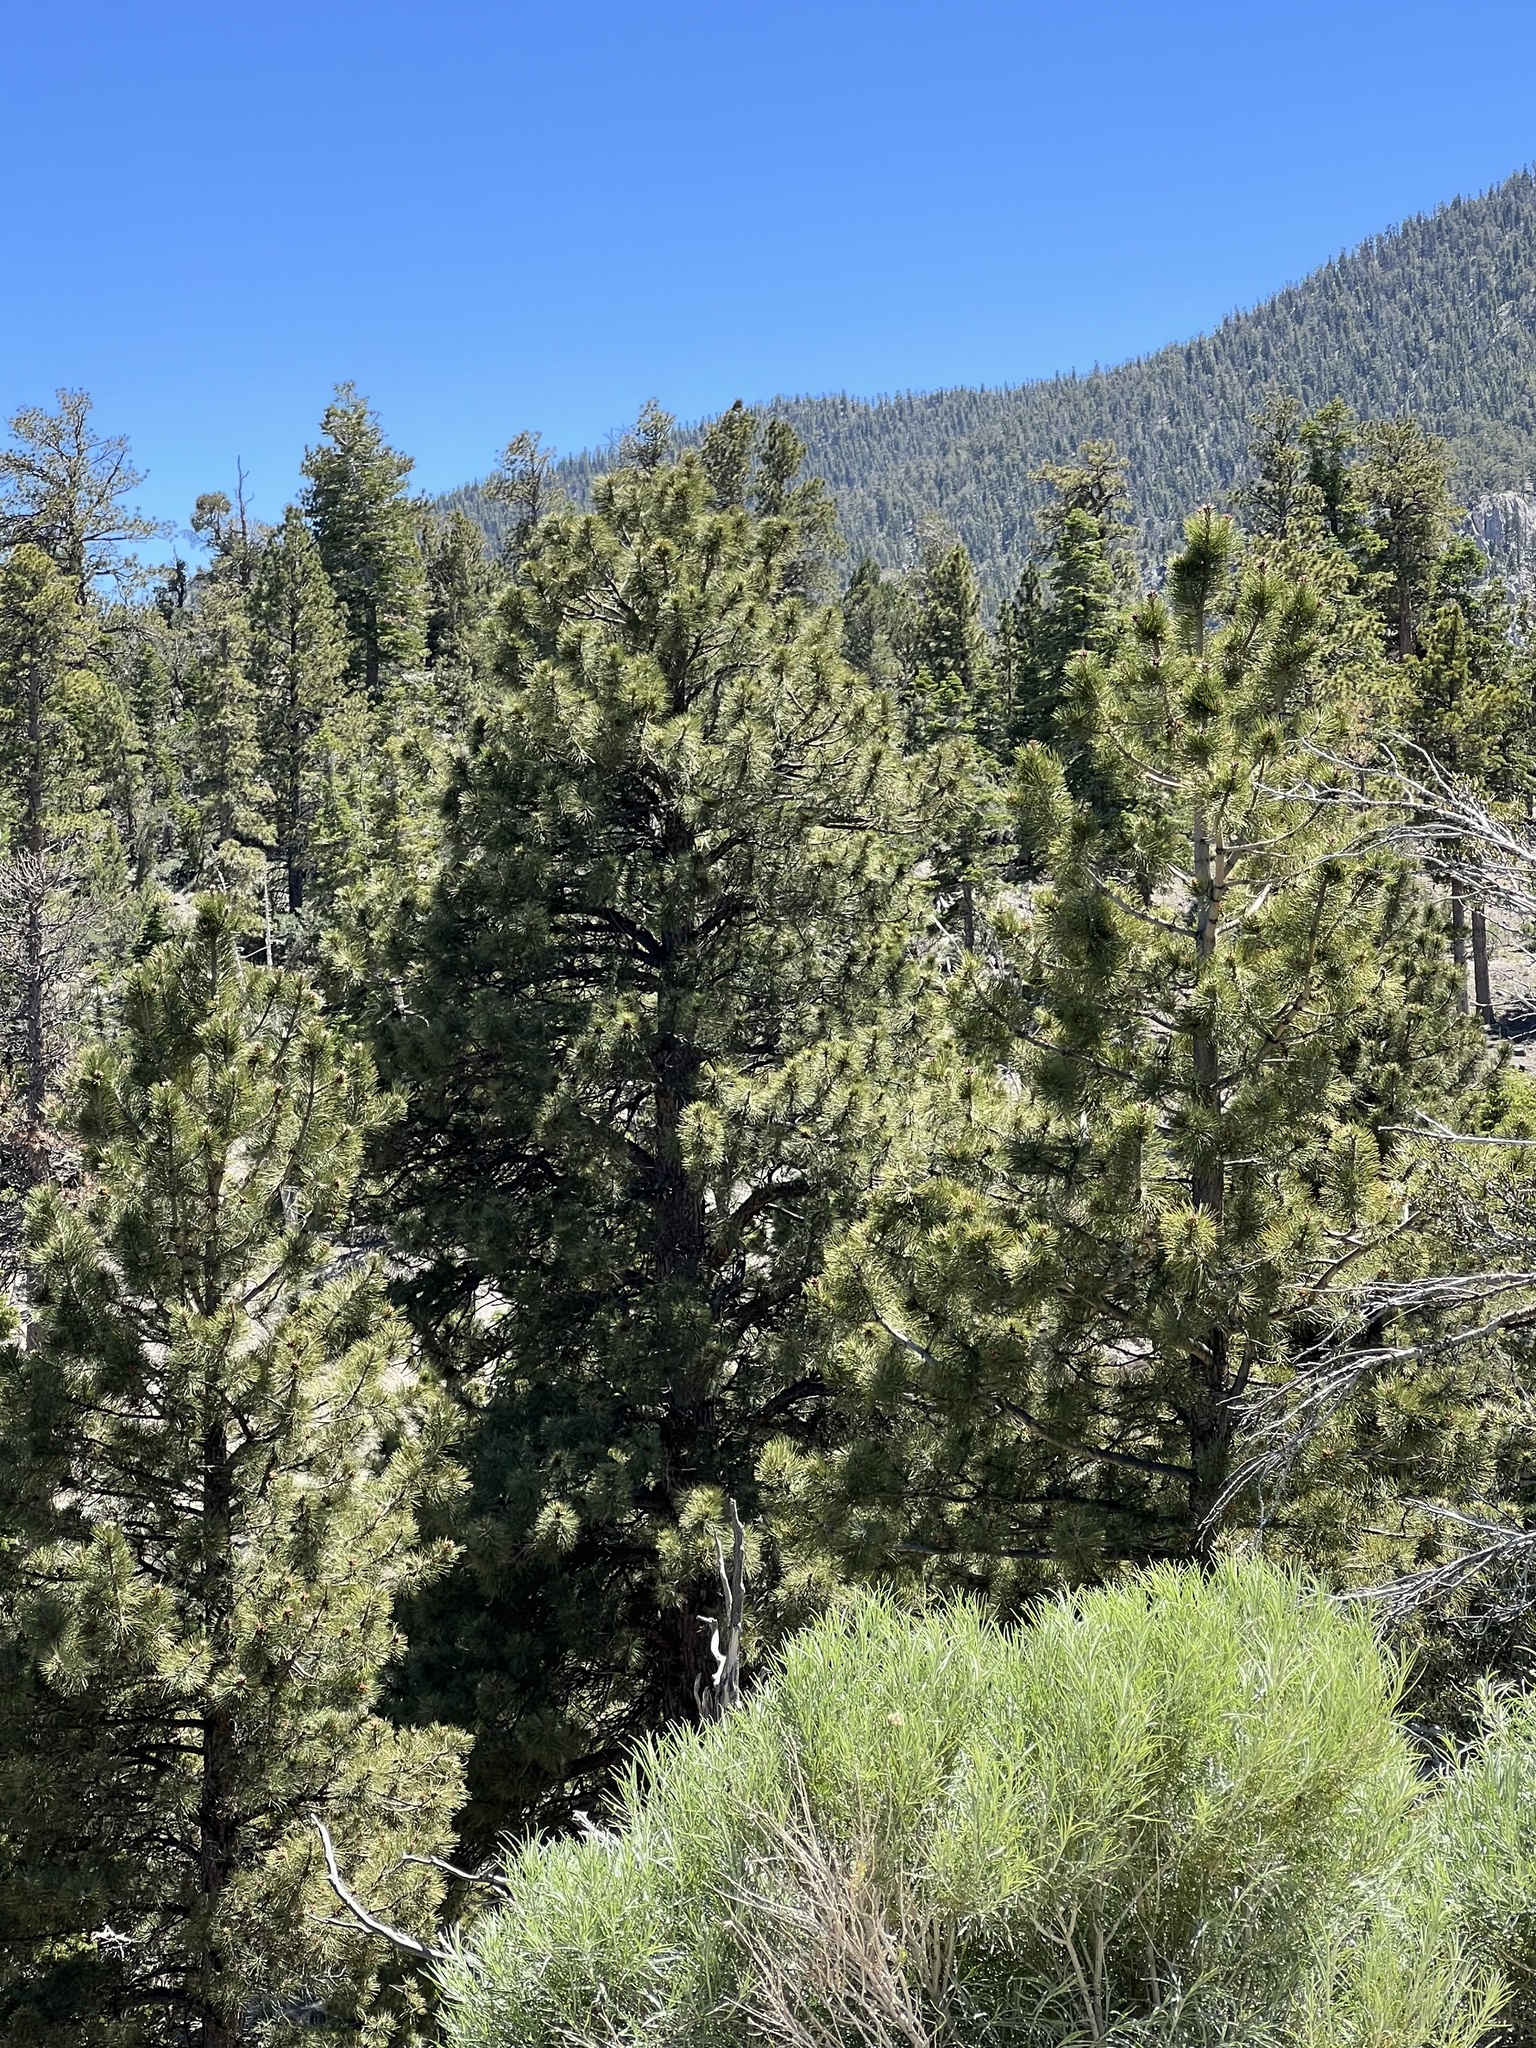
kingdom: Plantae
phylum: Tracheophyta
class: Pinopsida
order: Pinales
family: Pinaceae
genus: Pinus
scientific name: Pinus ponderosa
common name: Western yellow-pine
